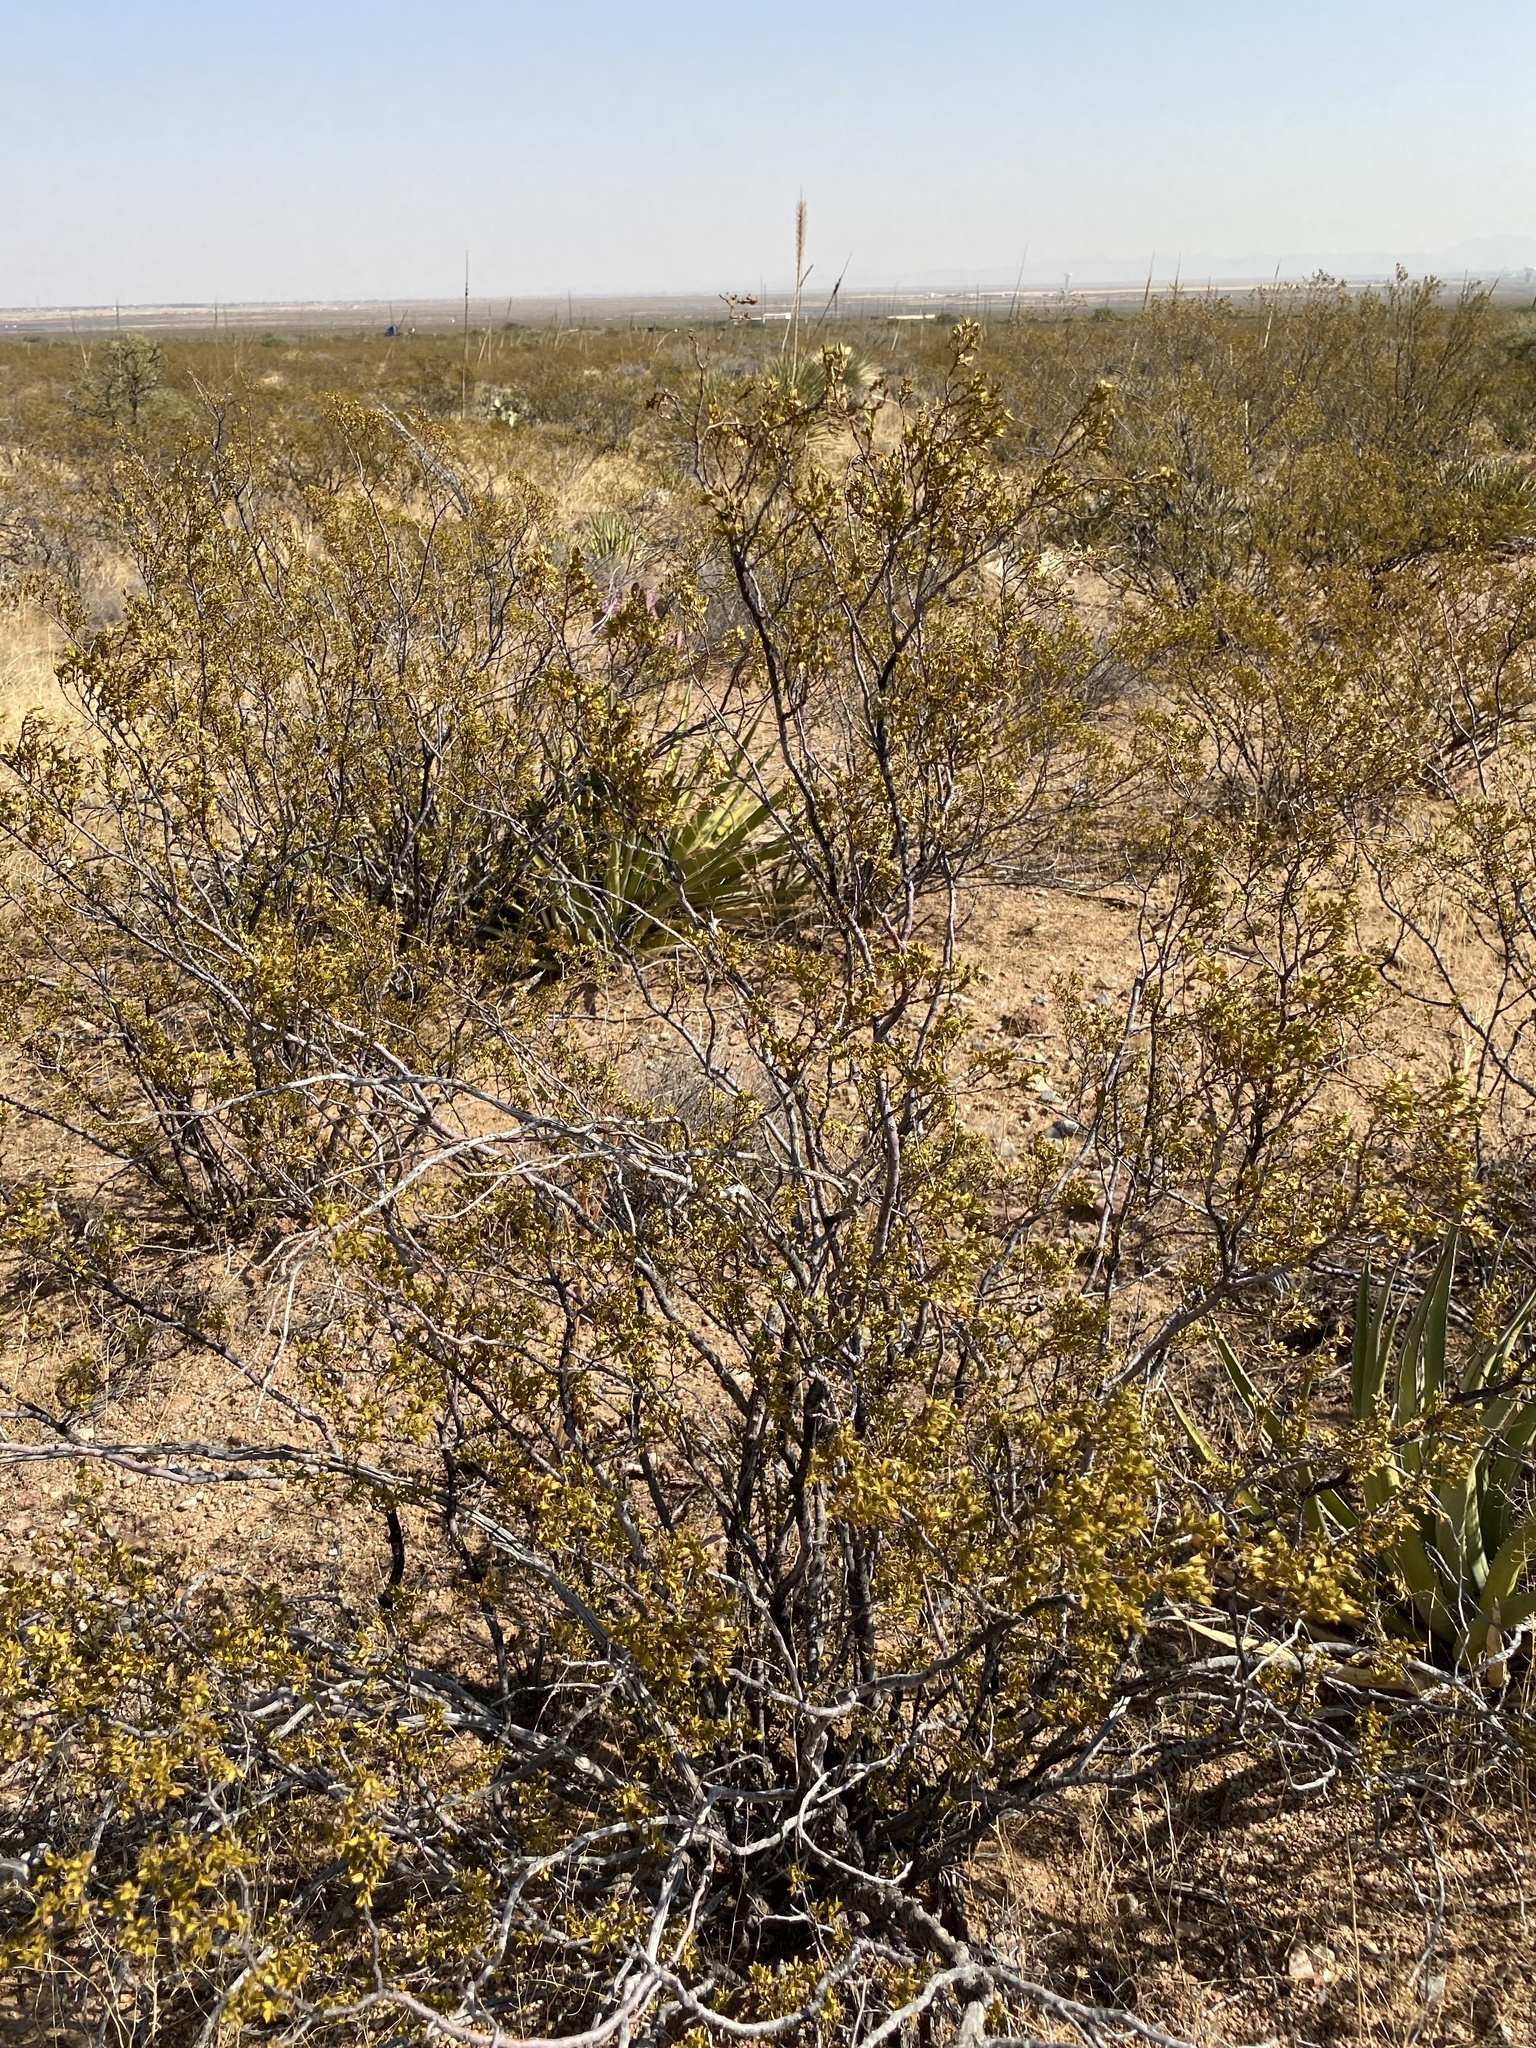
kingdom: Plantae
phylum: Tracheophyta
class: Magnoliopsida
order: Zygophyllales
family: Zygophyllaceae
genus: Larrea
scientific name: Larrea tridentata
